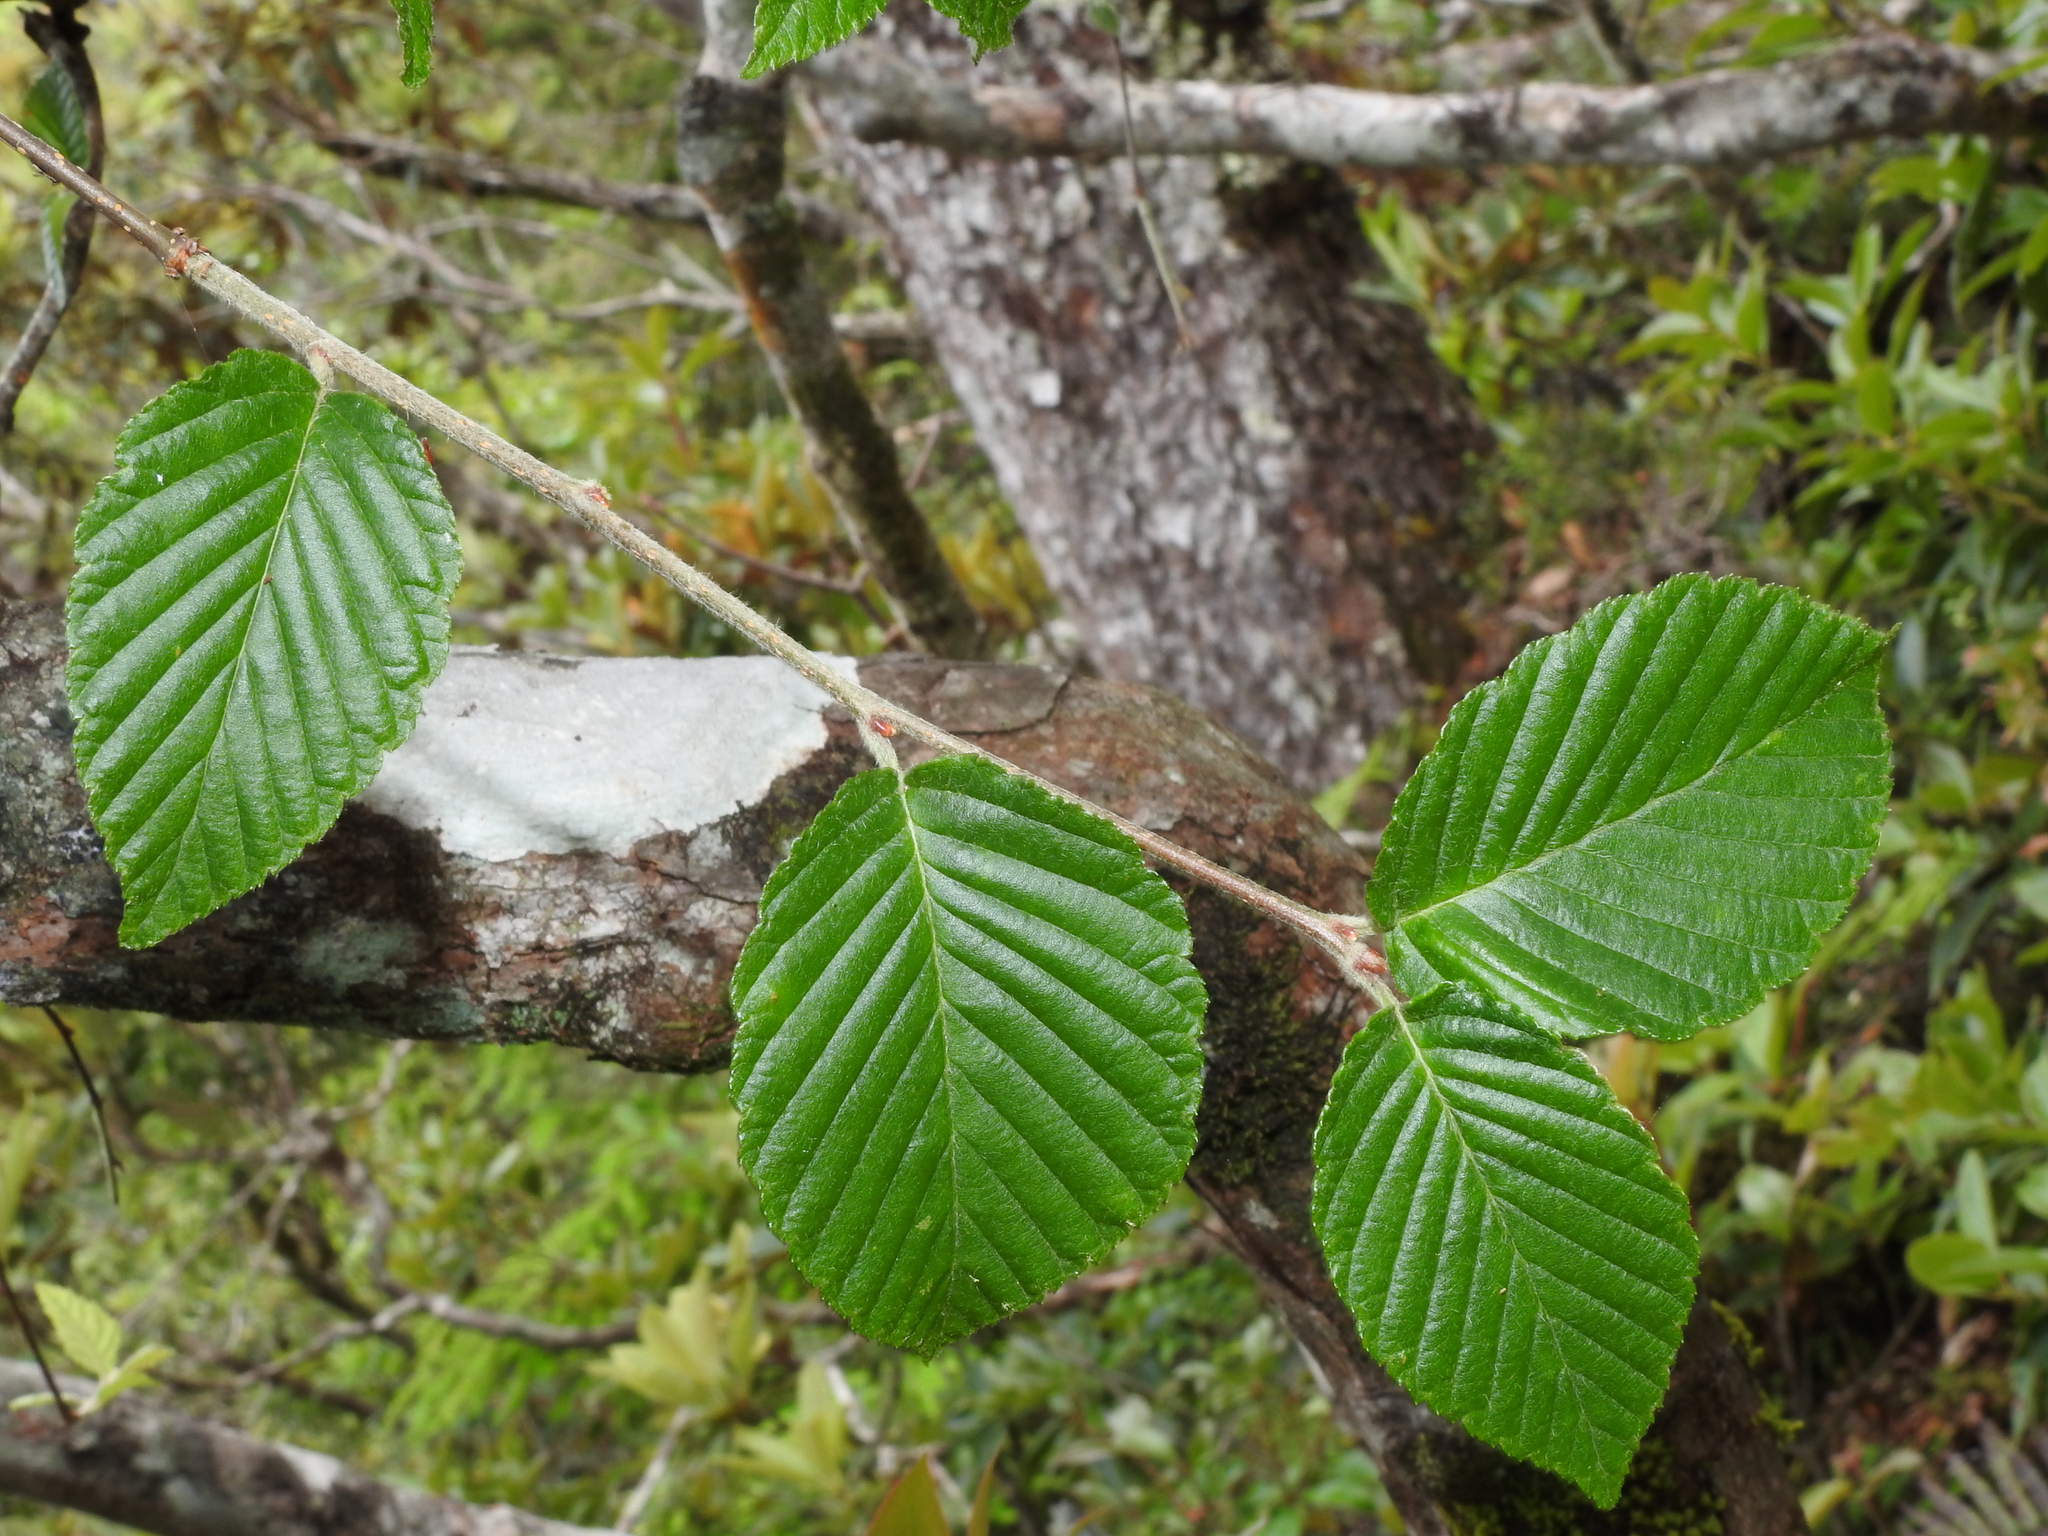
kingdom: Plantae
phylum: Tracheophyta
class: Magnoliopsida
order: Rosales
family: Rosaceae
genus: Sorbus
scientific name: Sorbus alnifolia
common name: Mountain-ash
